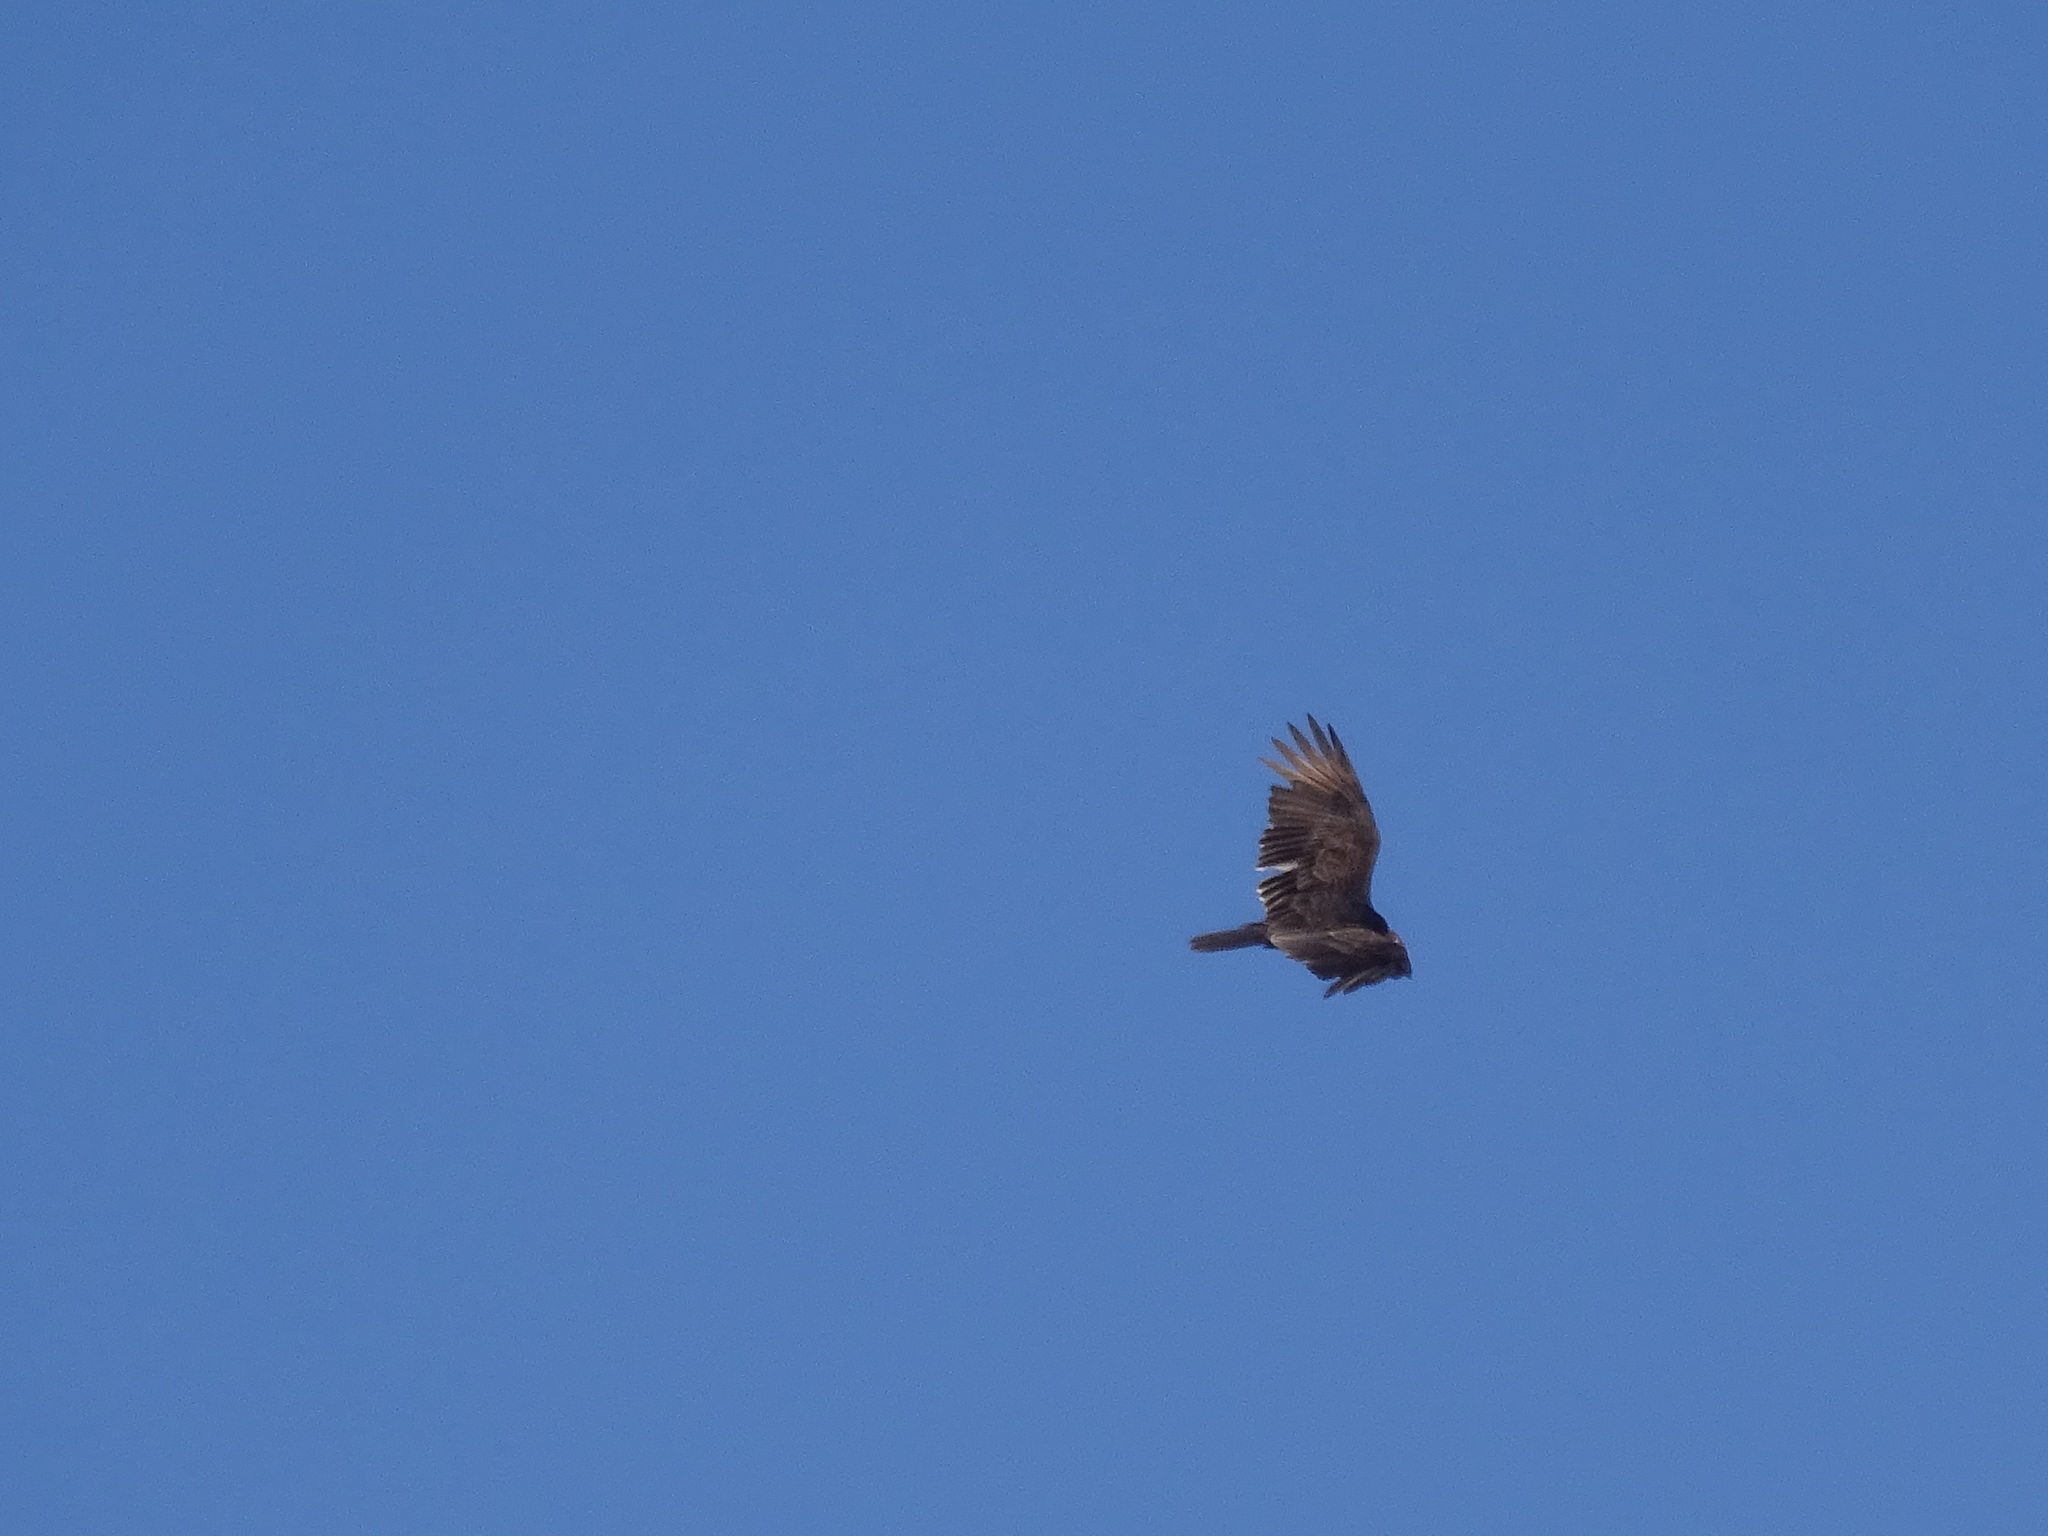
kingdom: Animalia
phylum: Chordata
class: Aves
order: Accipitriformes
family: Cathartidae
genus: Cathartes
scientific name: Cathartes aura
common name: Turkey vulture
